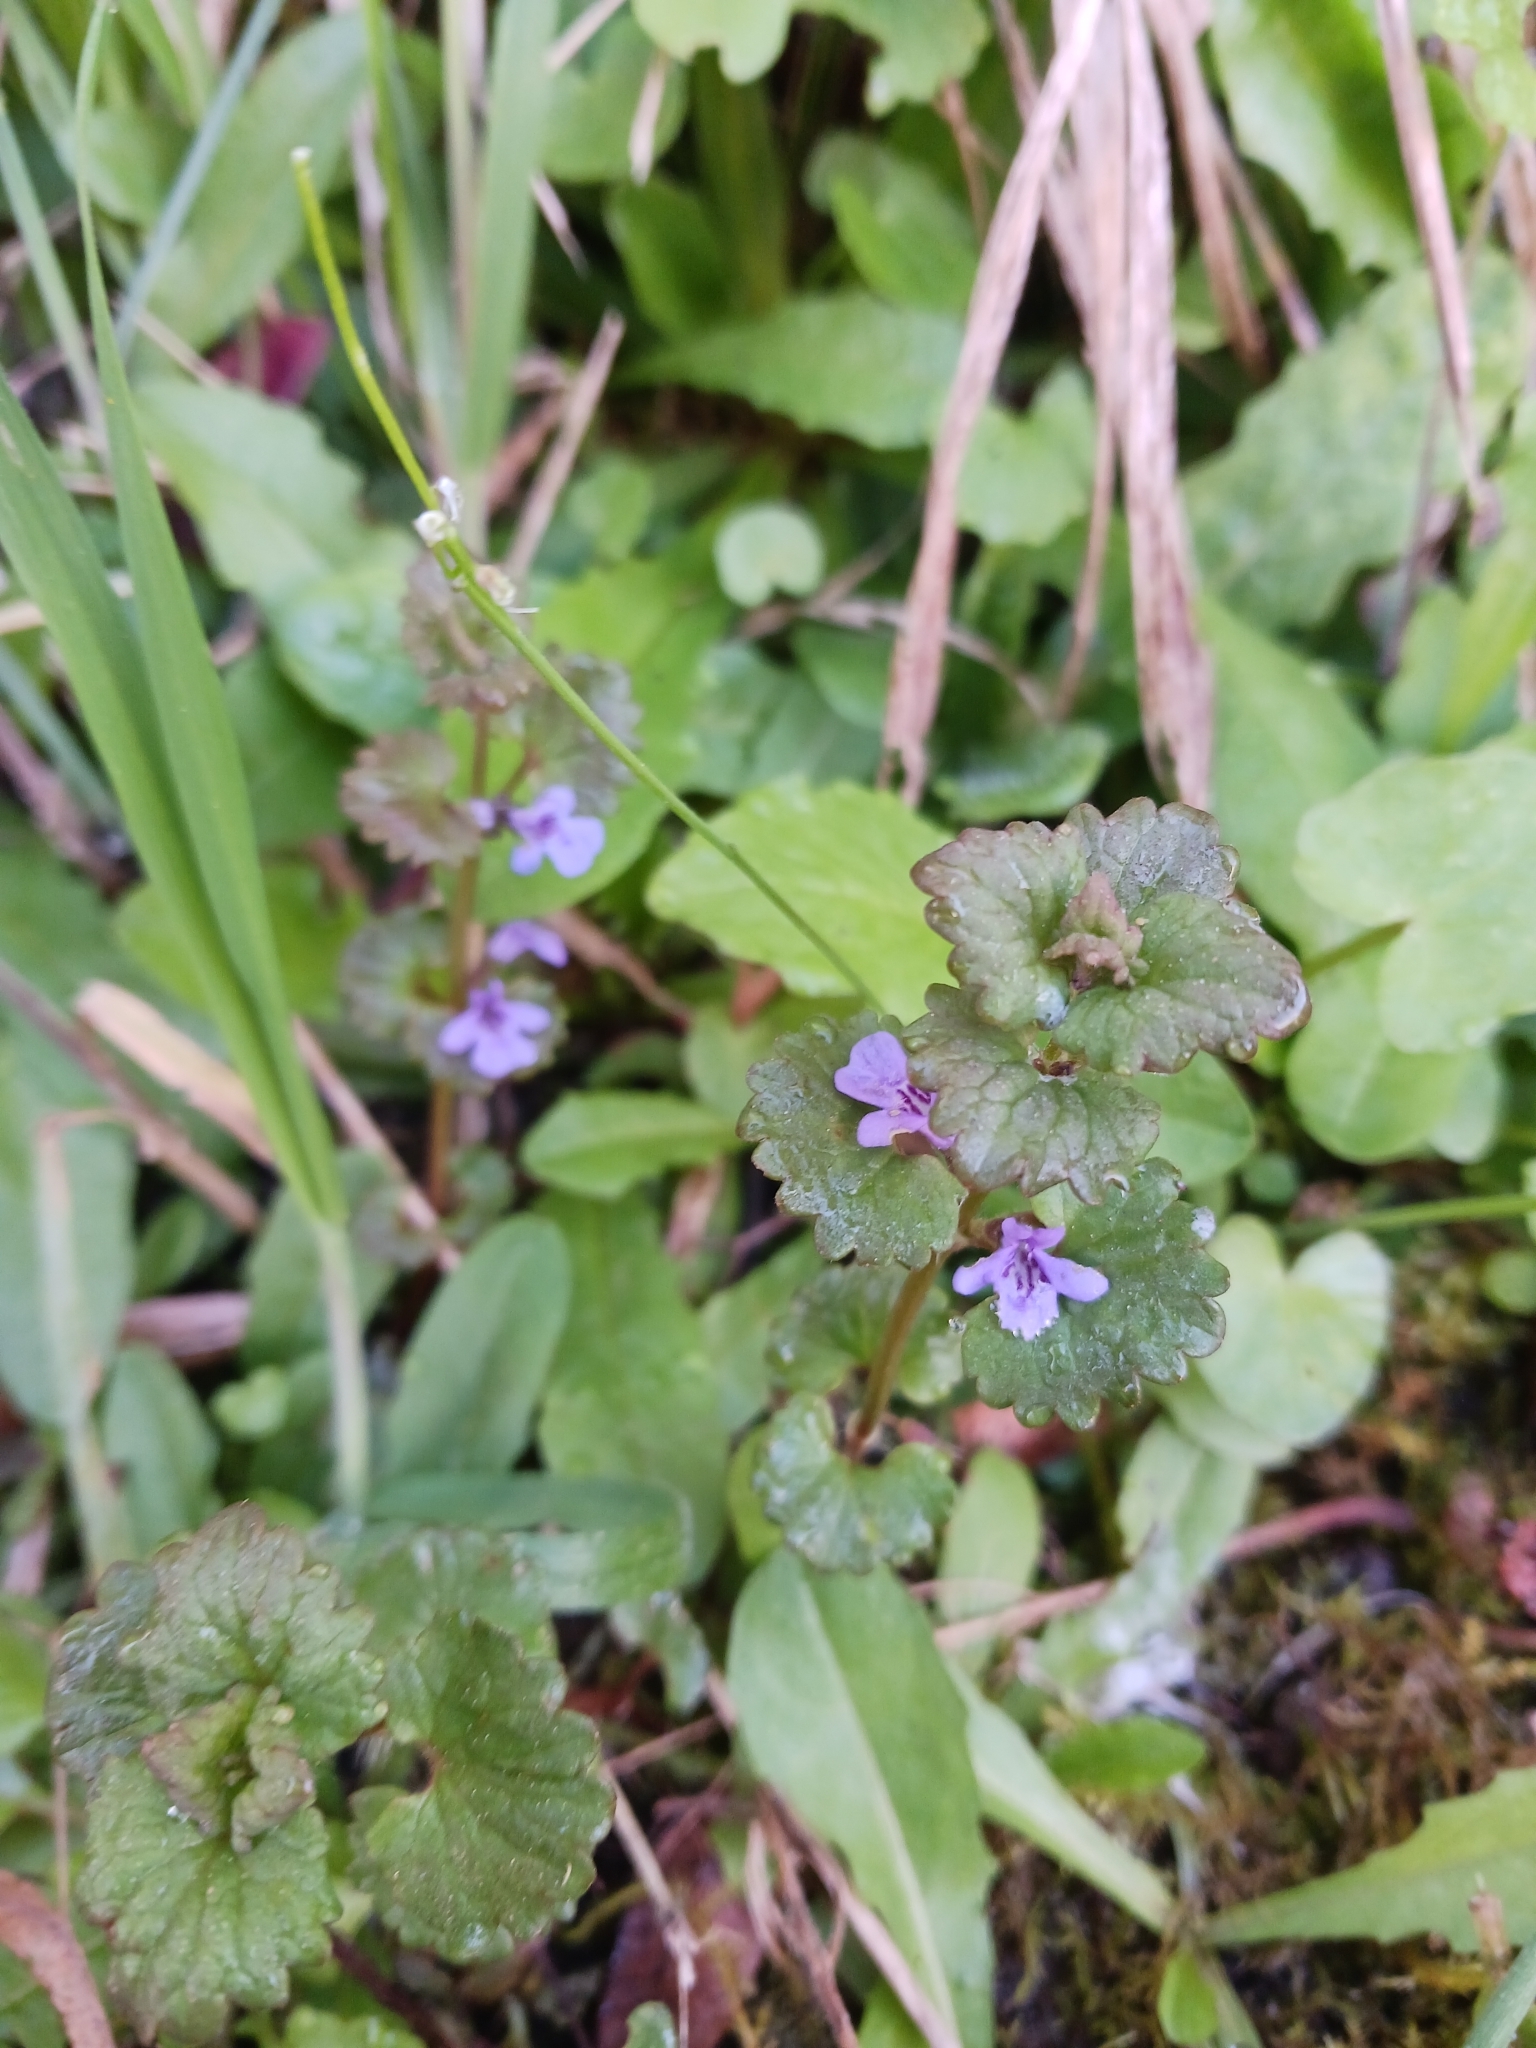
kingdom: Plantae
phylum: Tracheophyta
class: Magnoliopsida
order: Lamiales
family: Lamiaceae
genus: Glechoma
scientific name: Glechoma hederacea
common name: Ground ivy
